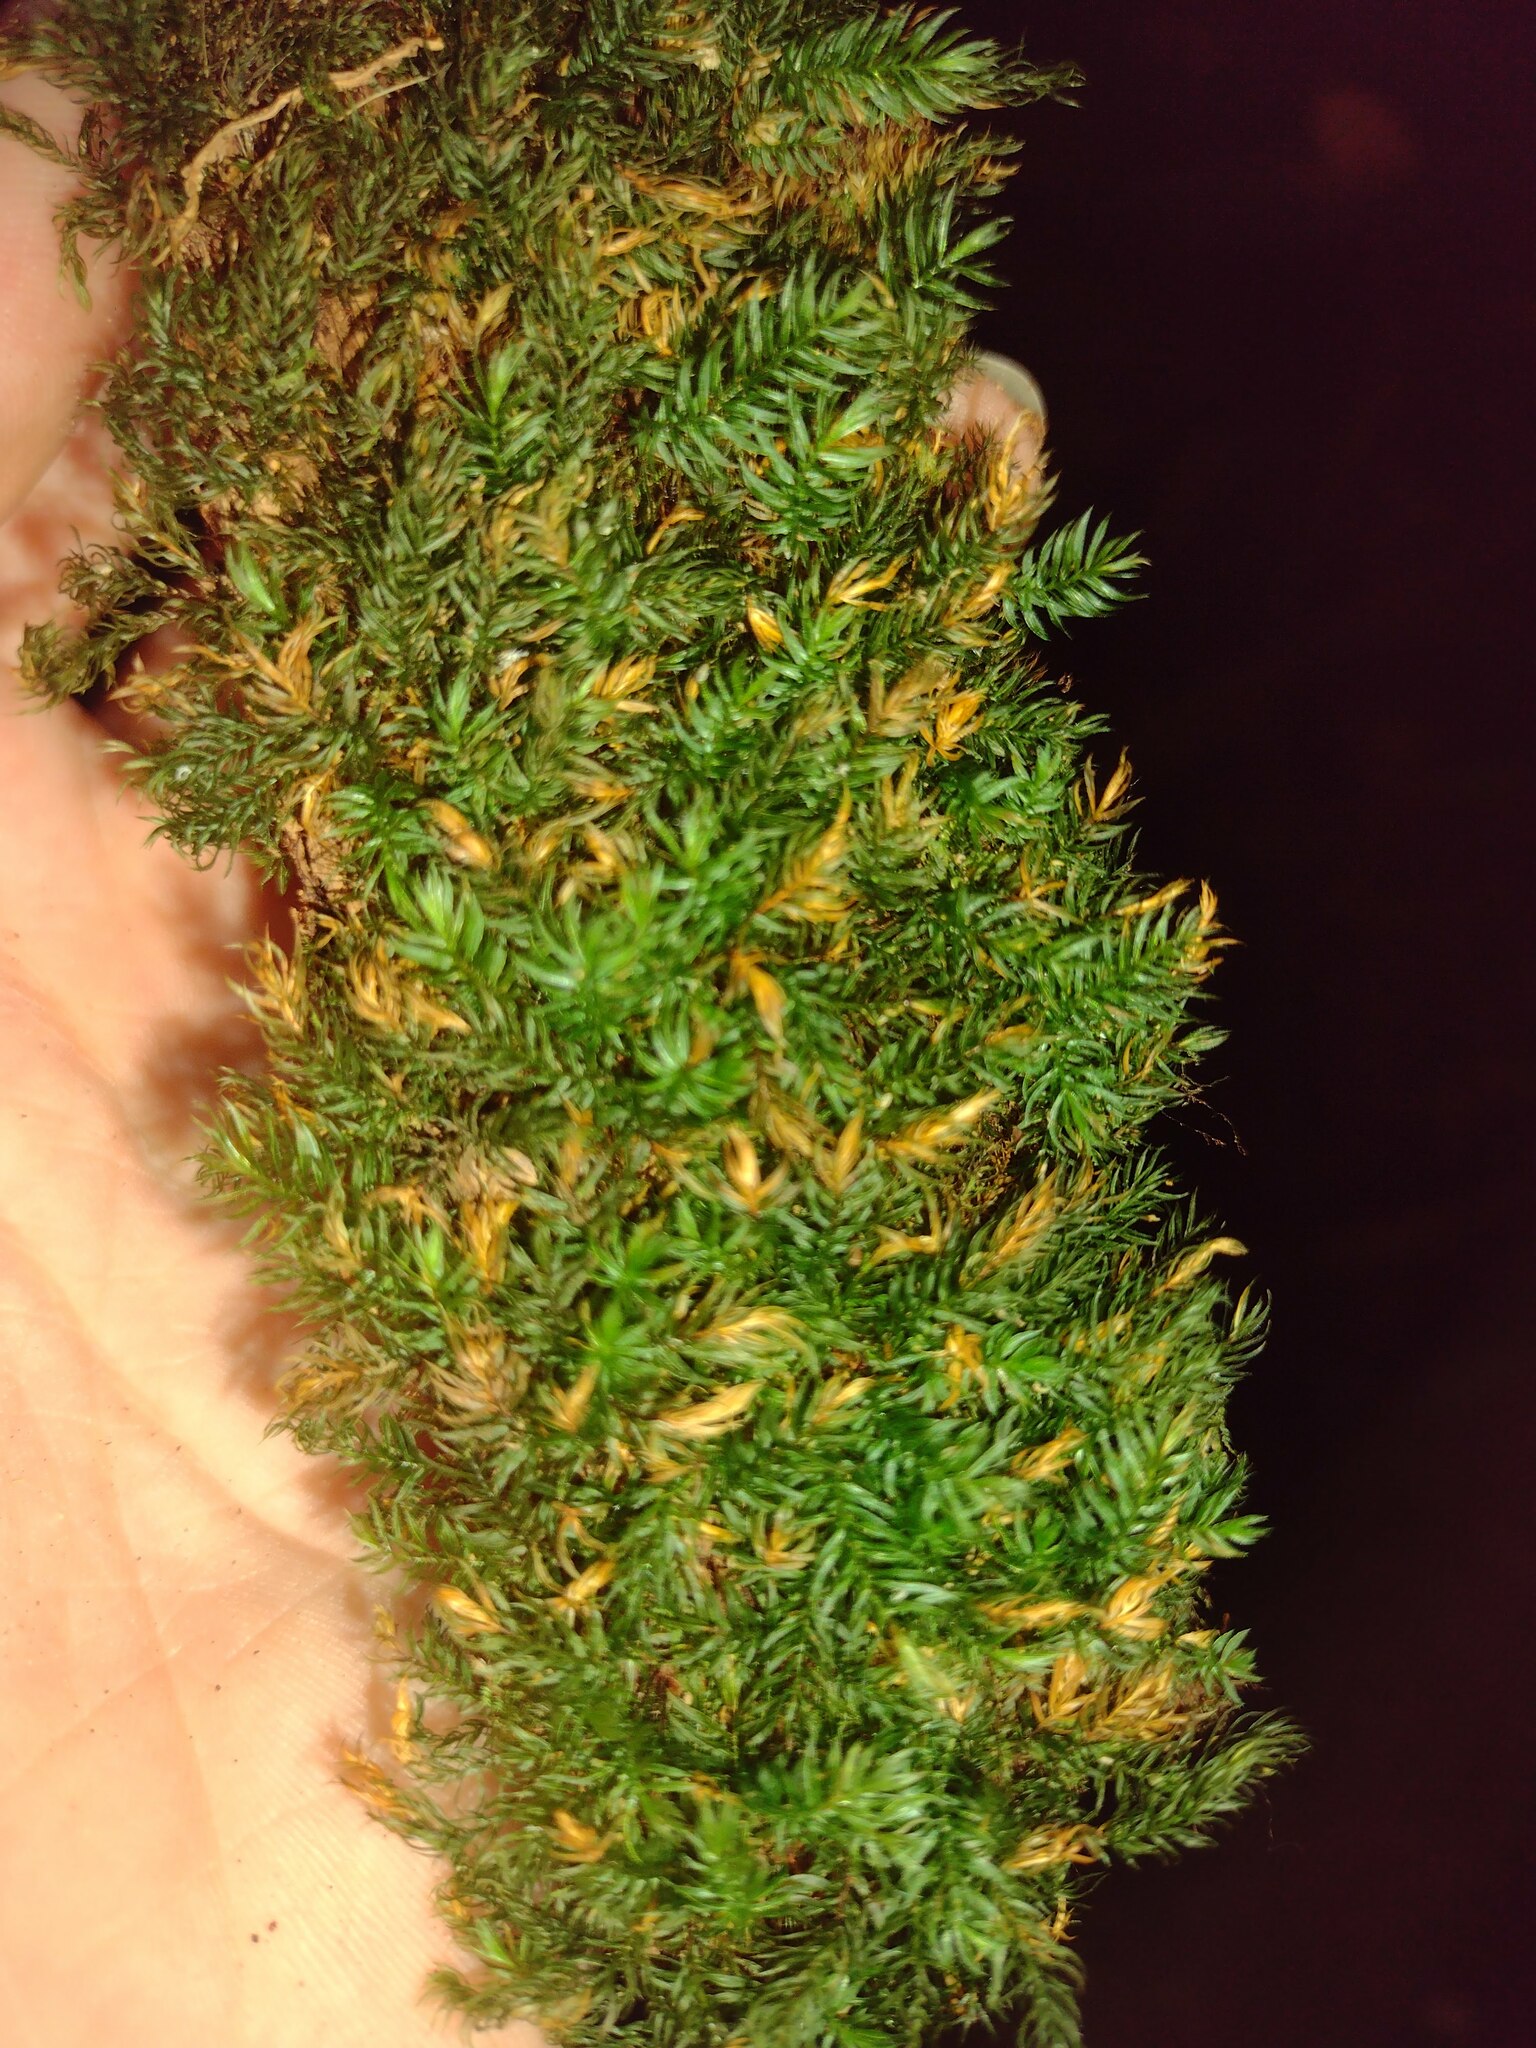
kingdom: Plantae
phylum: Bryophyta
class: Bryopsida
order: Rhizogoniales
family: Calomniaceae
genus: Pyrrhobryum
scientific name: Pyrrhobryum spiniforme
